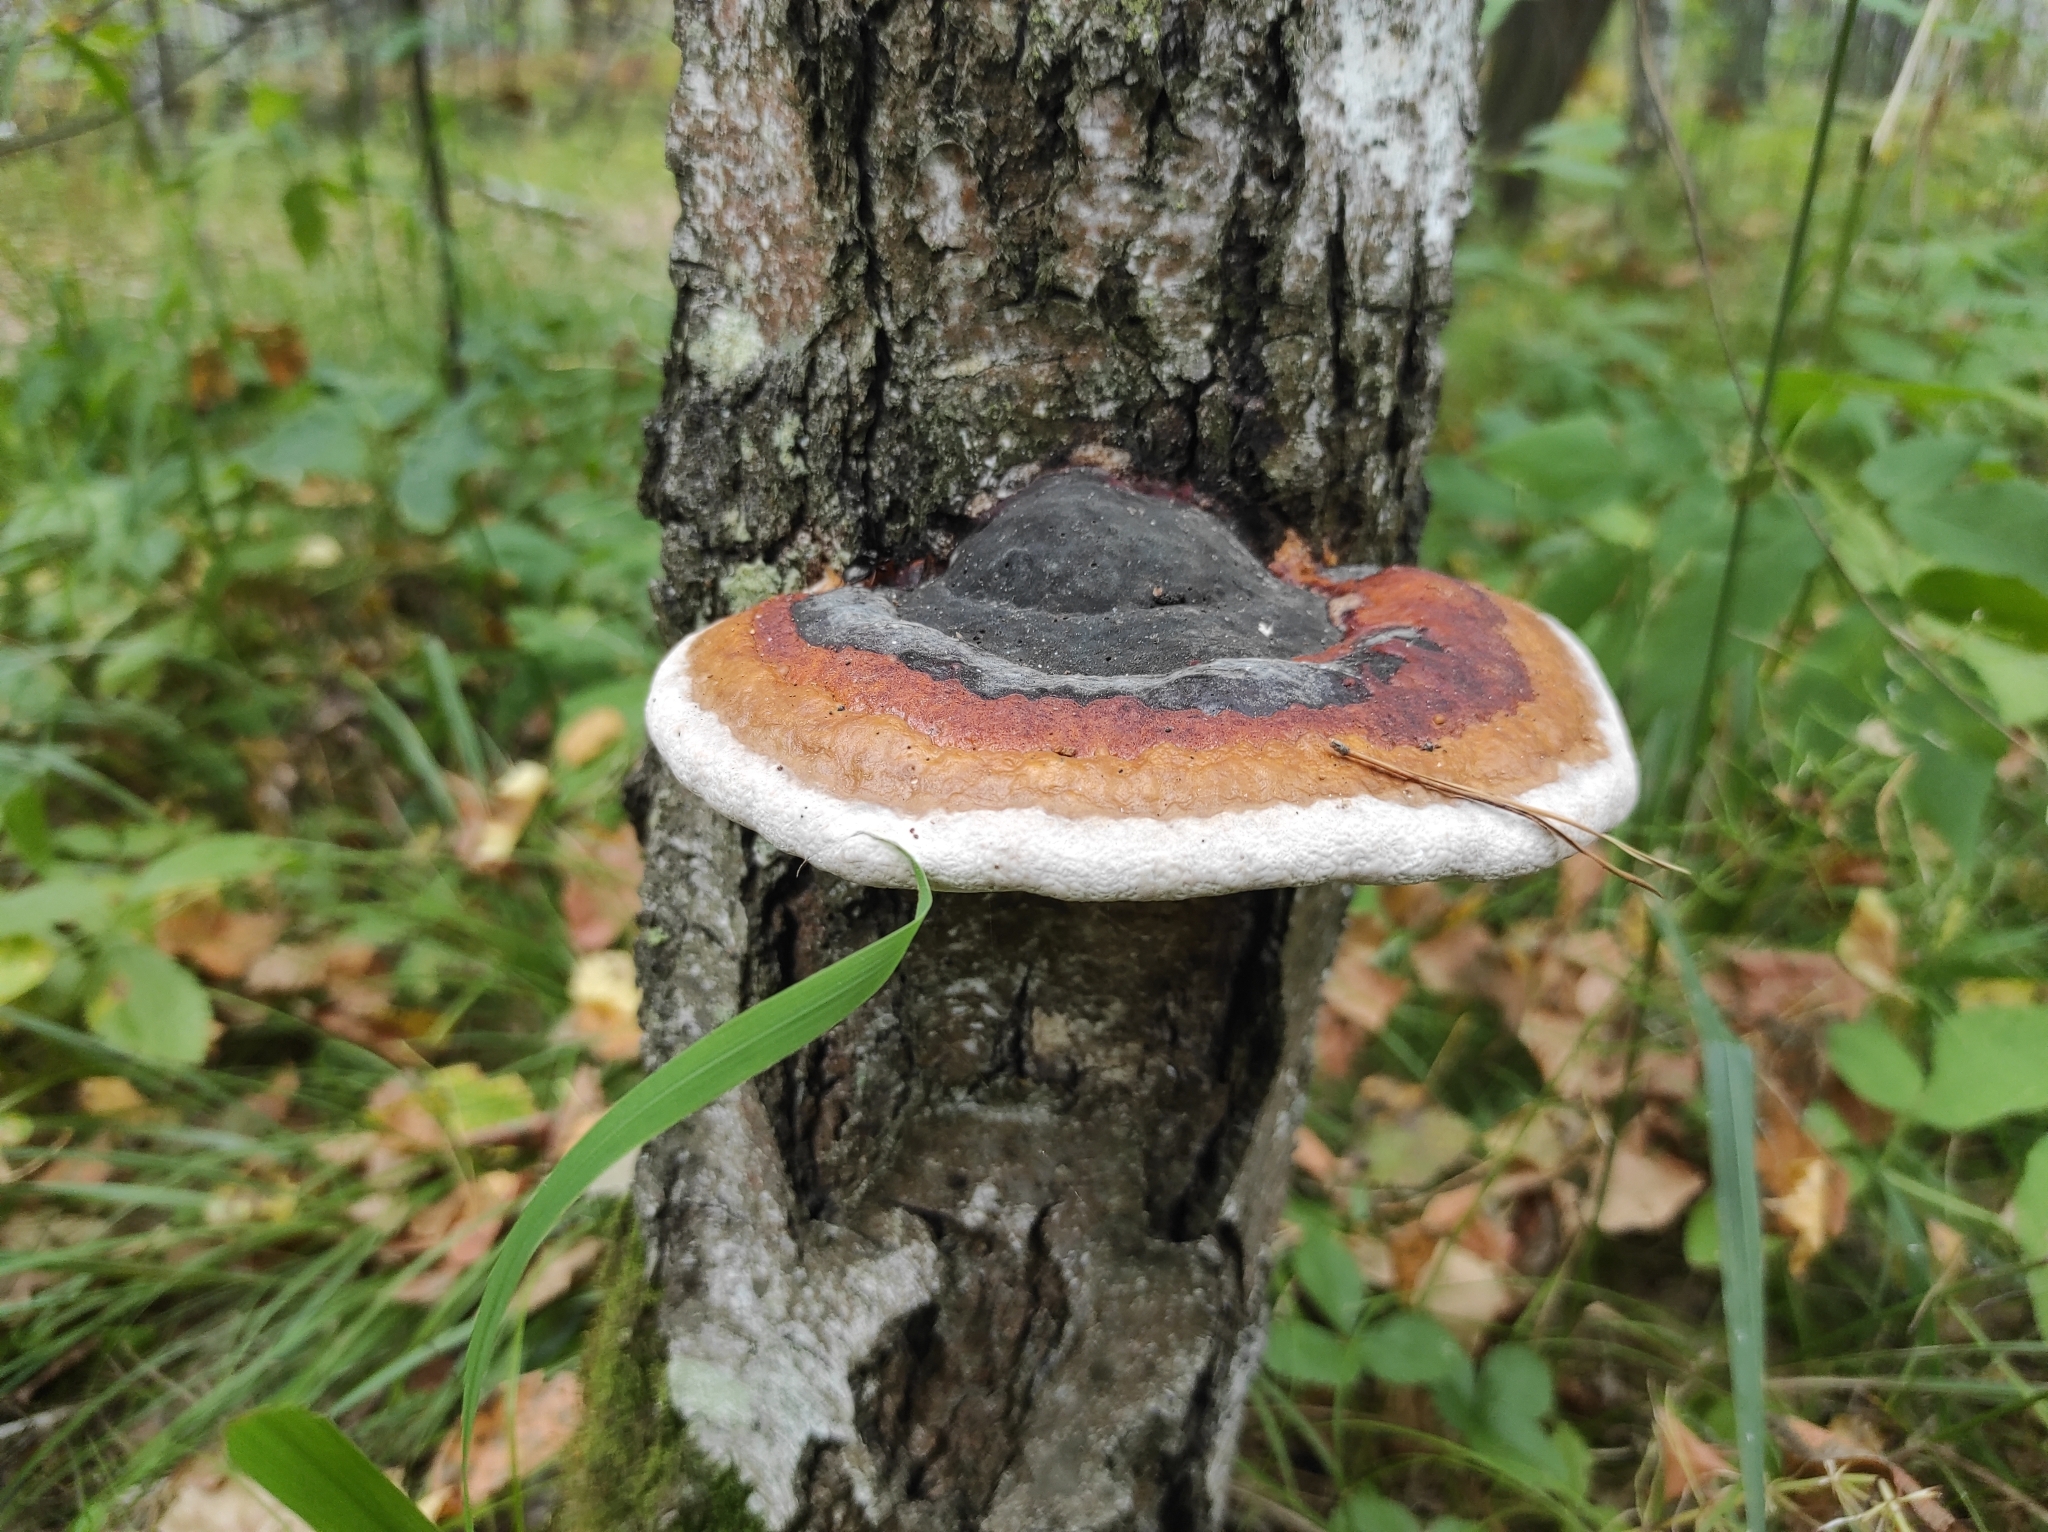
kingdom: Fungi
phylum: Basidiomycota
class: Agaricomycetes
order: Polyporales
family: Fomitopsidaceae
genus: Fomitopsis
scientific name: Fomitopsis pinicola
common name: Red-belted bracket
